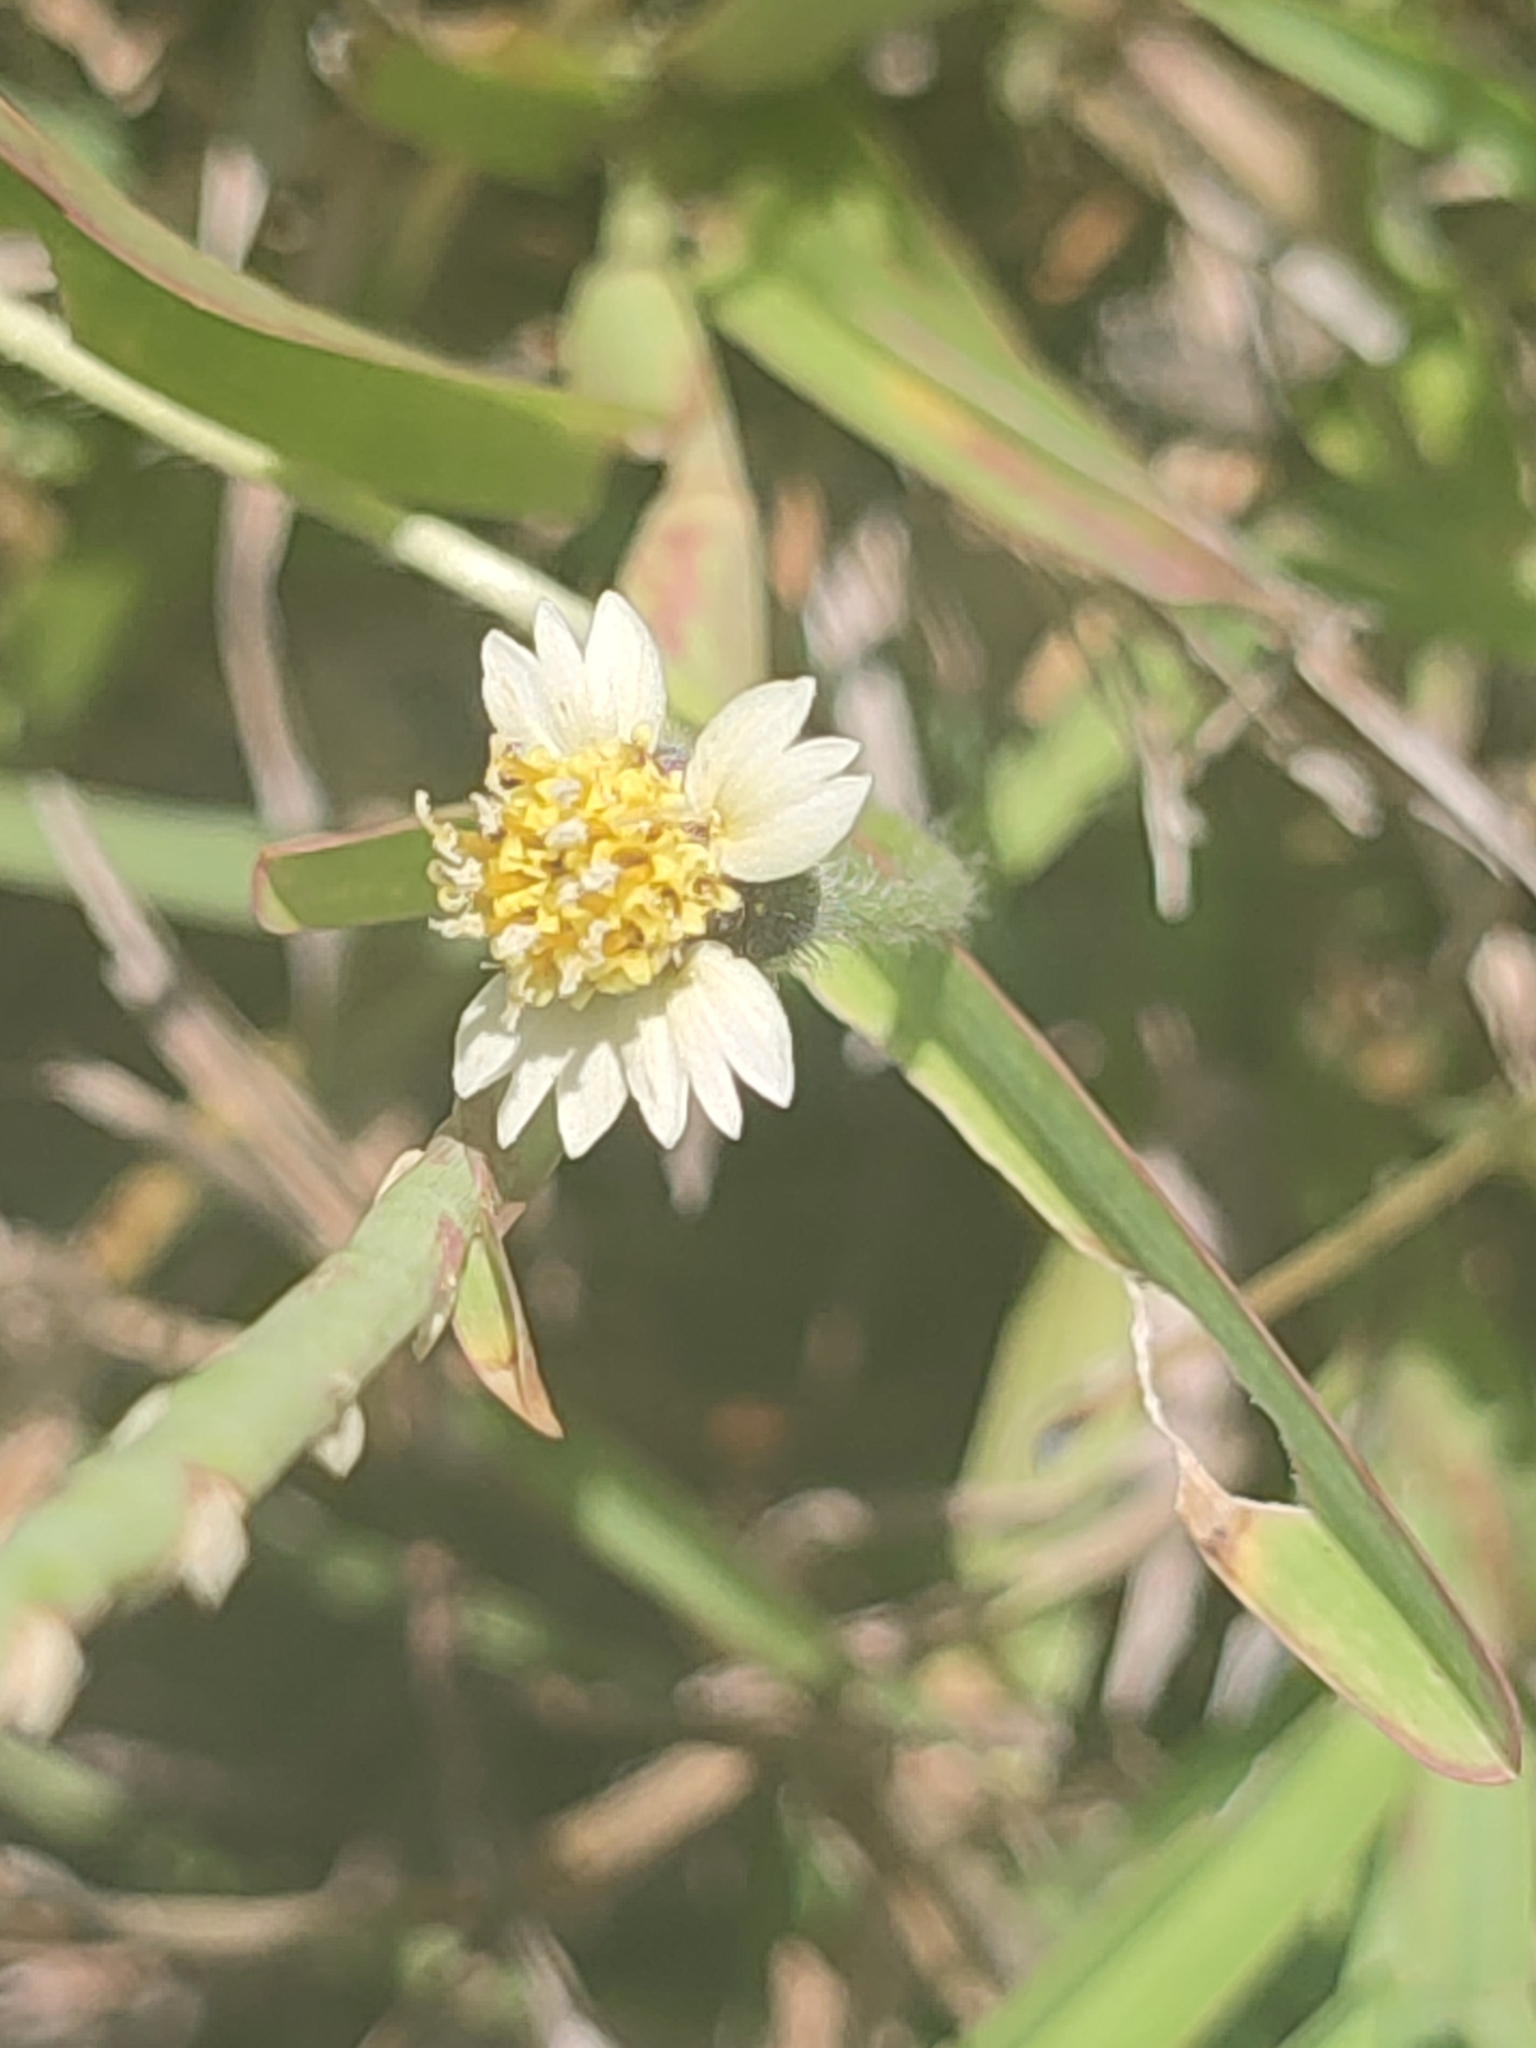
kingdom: Plantae
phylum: Tracheophyta
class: Magnoliopsida
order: Asterales
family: Asteraceae
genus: Tridax
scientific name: Tridax procumbens
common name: Coatbuttons
